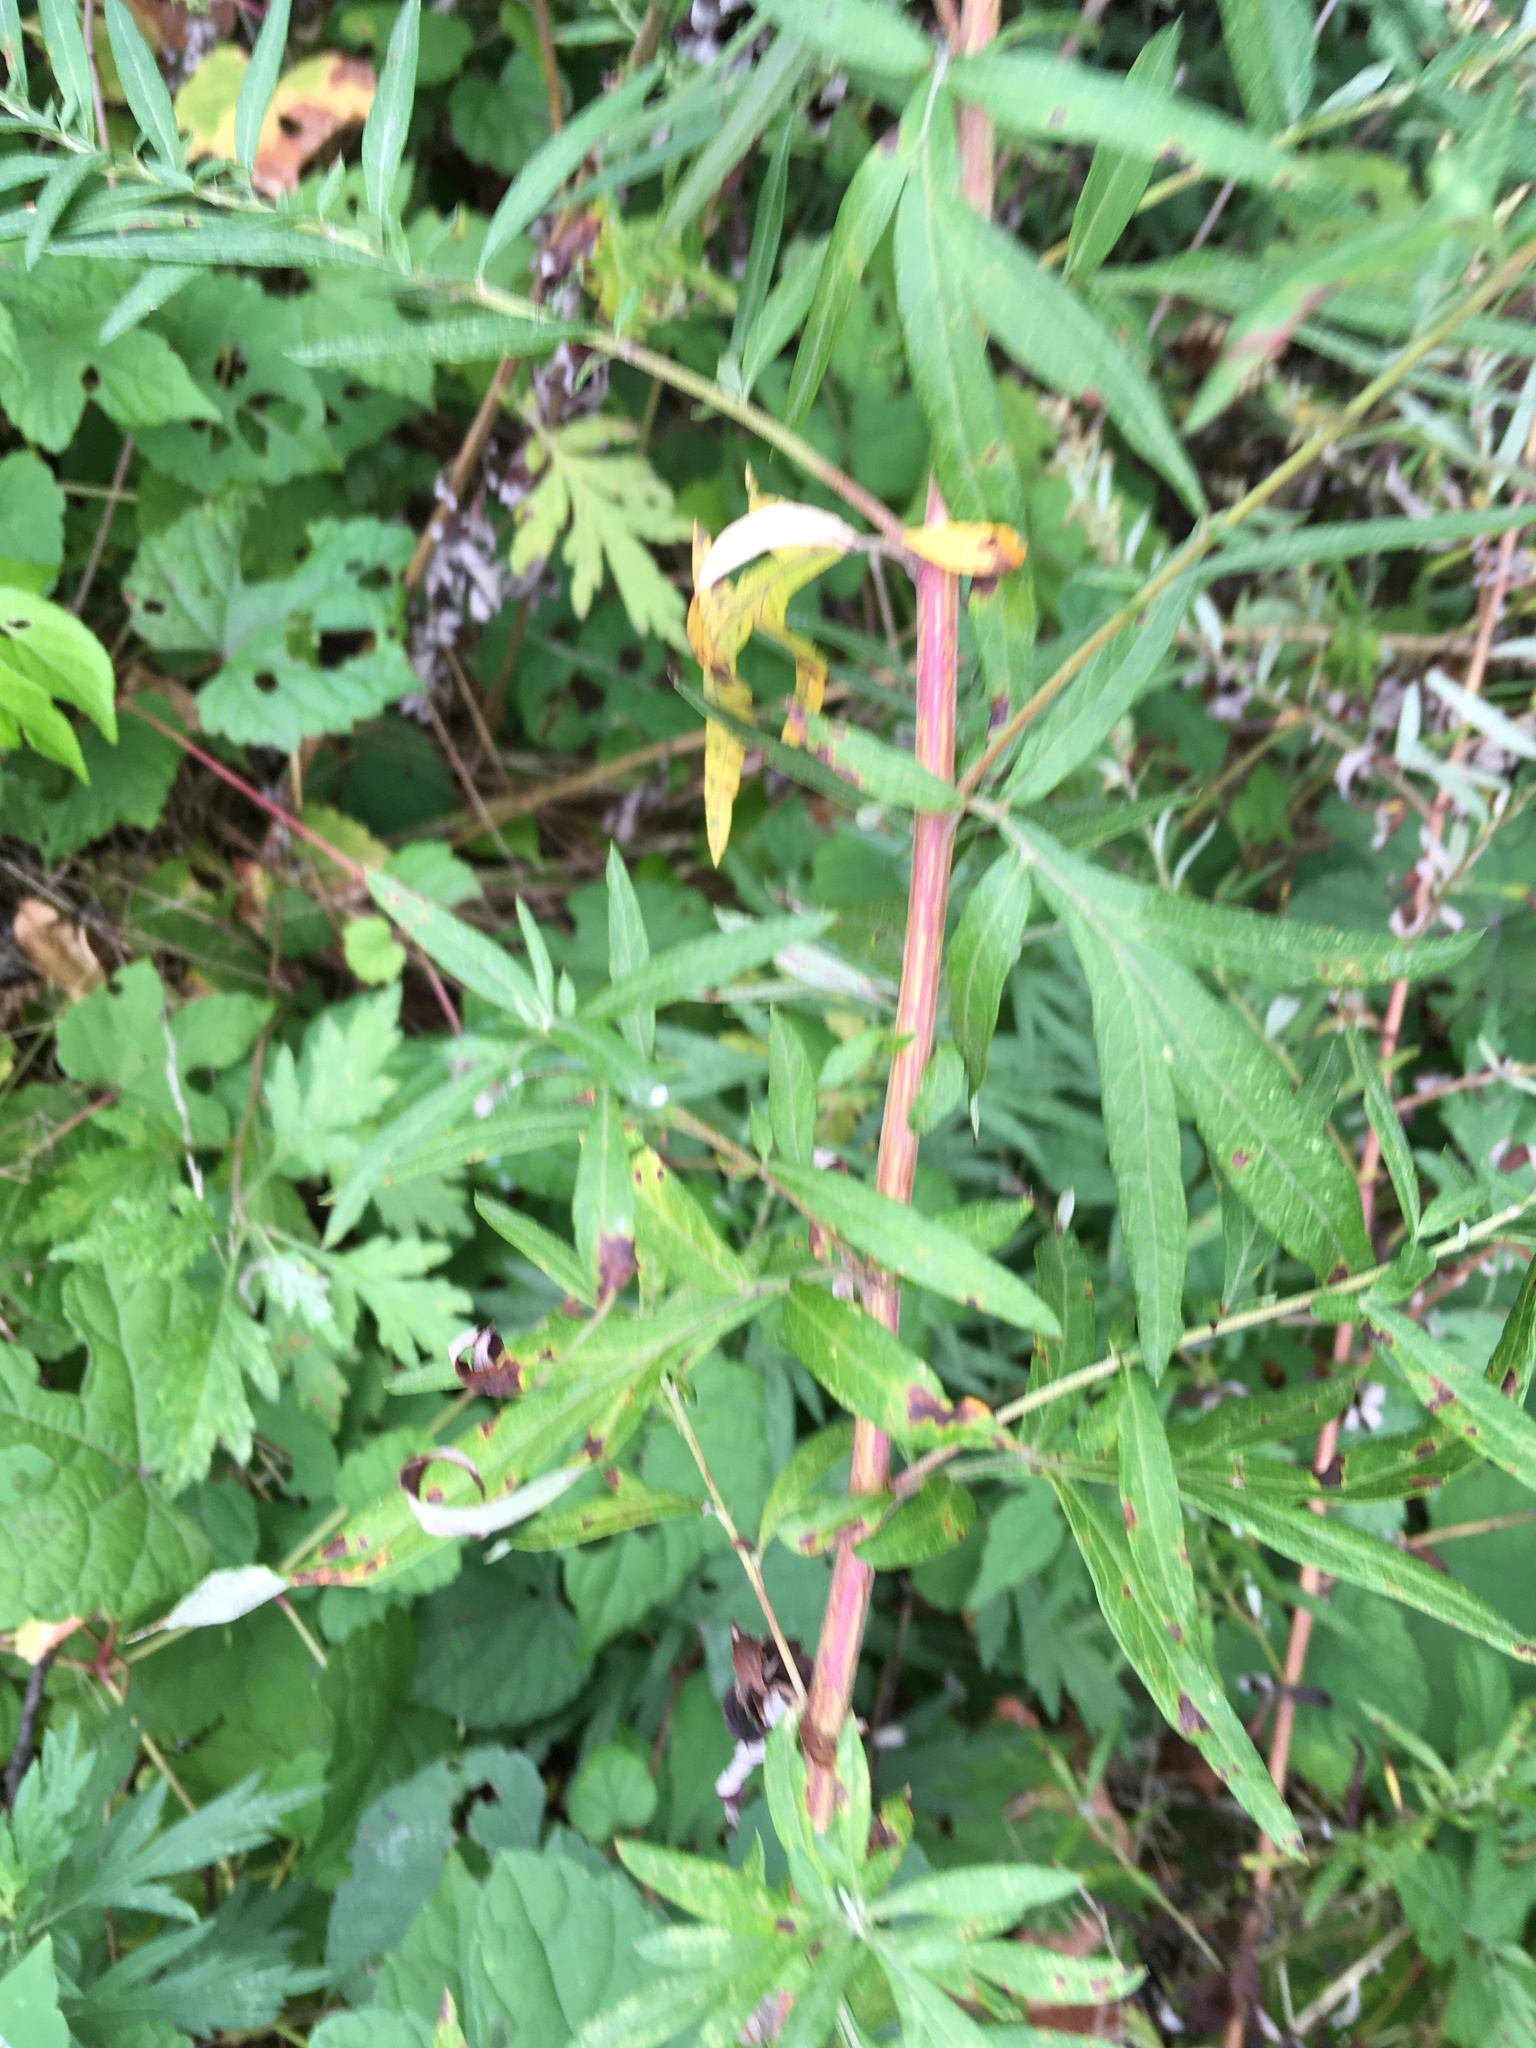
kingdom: Plantae
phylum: Tracheophyta
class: Magnoliopsida
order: Asterales
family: Asteraceae
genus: Artemisia
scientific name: Artemisia vulgaris
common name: Mugwort
